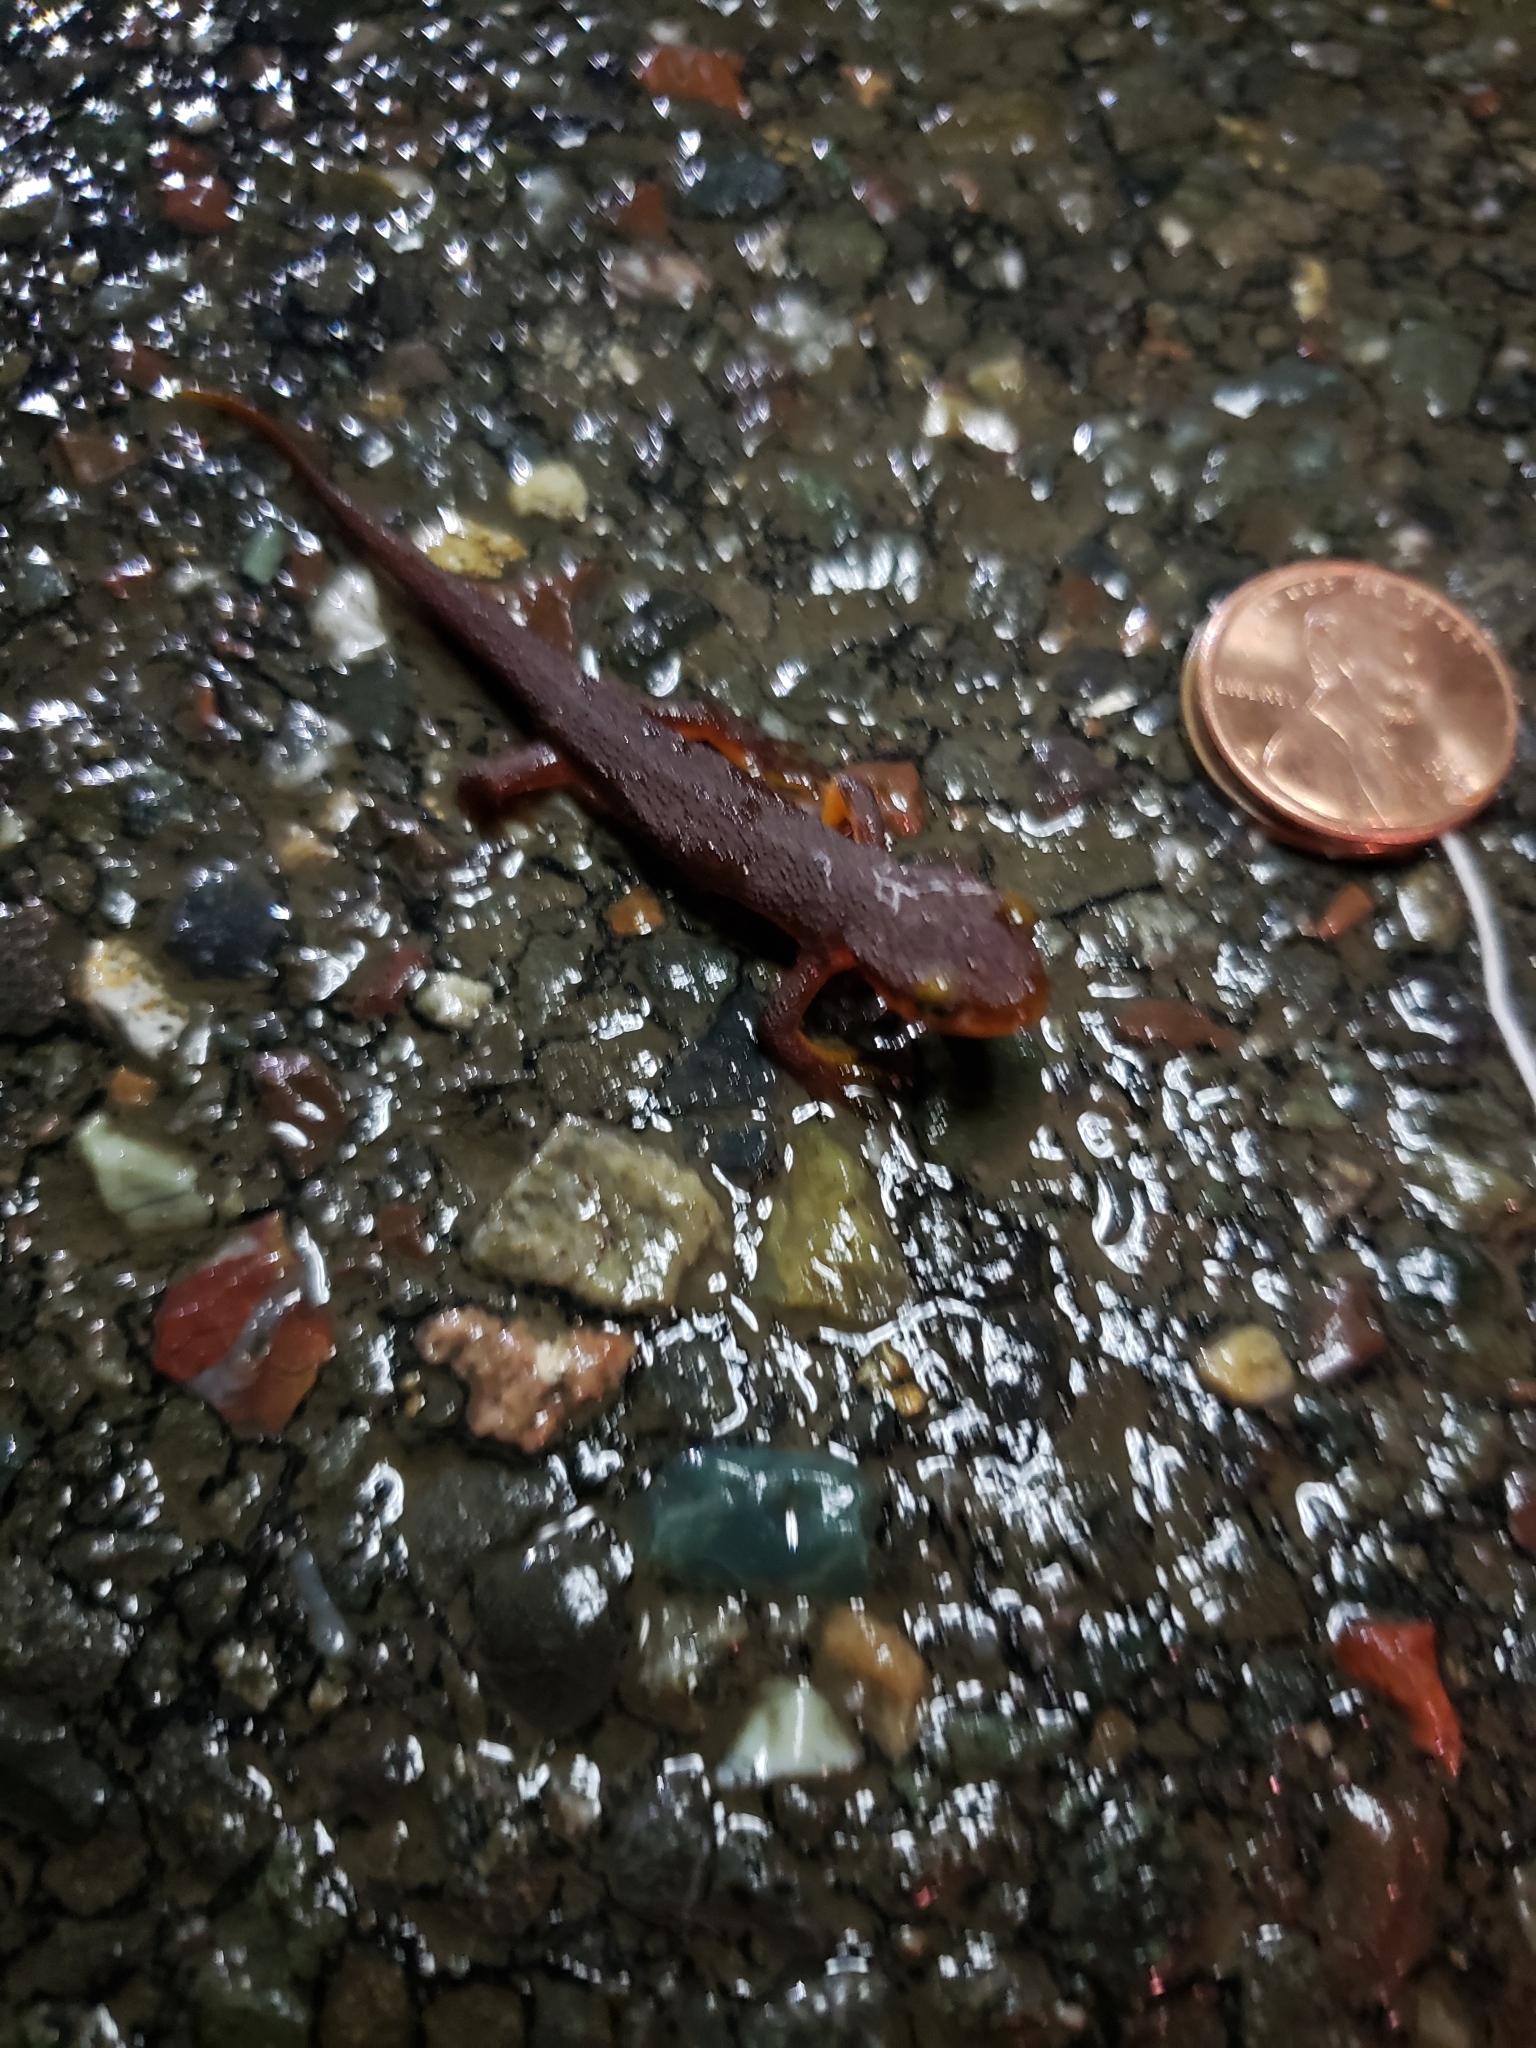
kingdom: Animalia
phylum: Chordata
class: Amphibia
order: Caudata
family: Salamandridae
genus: Taricha
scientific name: Taricha torosa
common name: California newt
